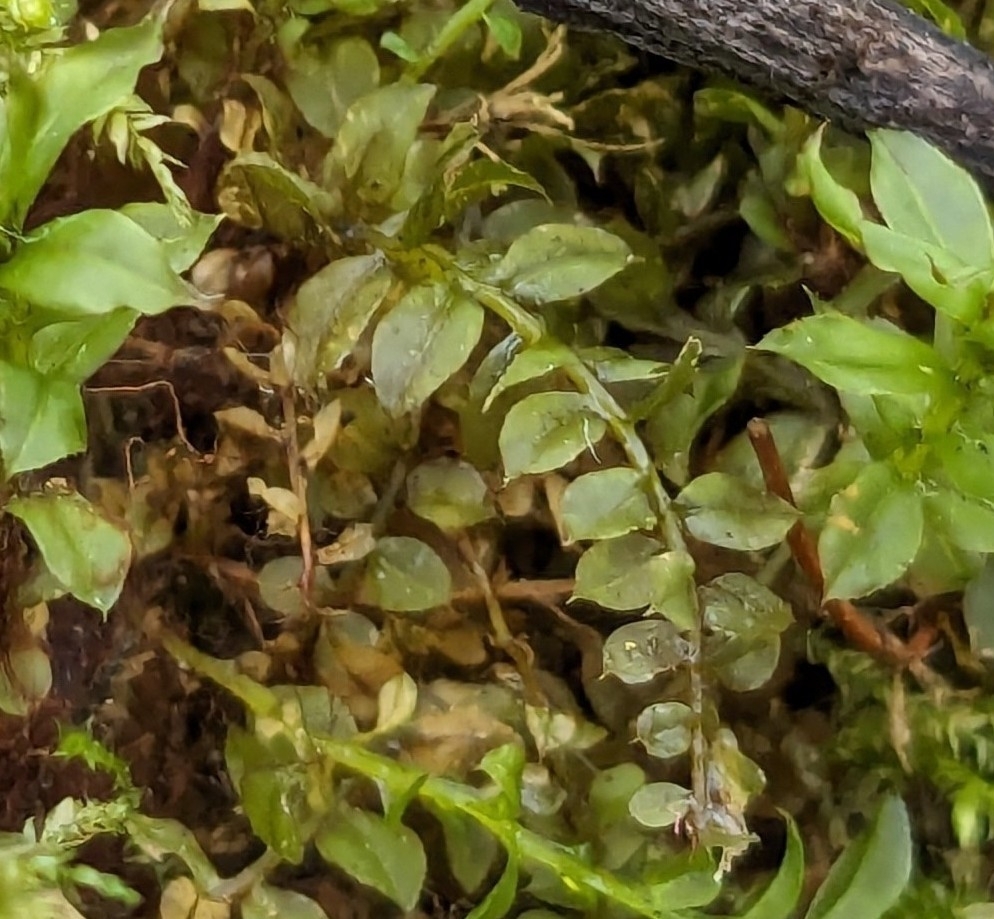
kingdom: Plantae
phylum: Bryophyta
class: Bryopsida
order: Bryales
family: Mniaceae
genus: Plagiomnium
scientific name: Plagiomnium cuspidatum
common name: Woodsy leafy moss
